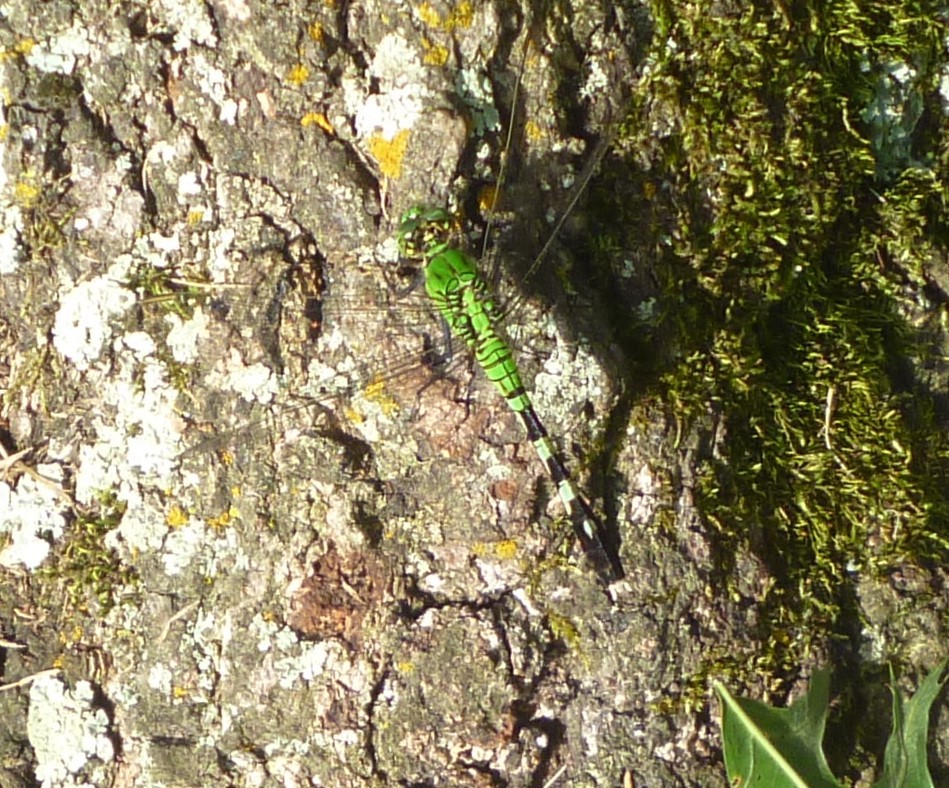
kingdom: Animalia
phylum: Arthropoda
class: Insecta
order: Odonata
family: Libellulidae
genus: Erythemis
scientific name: Erythemis simplicicollis
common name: Eastern pondhawk
